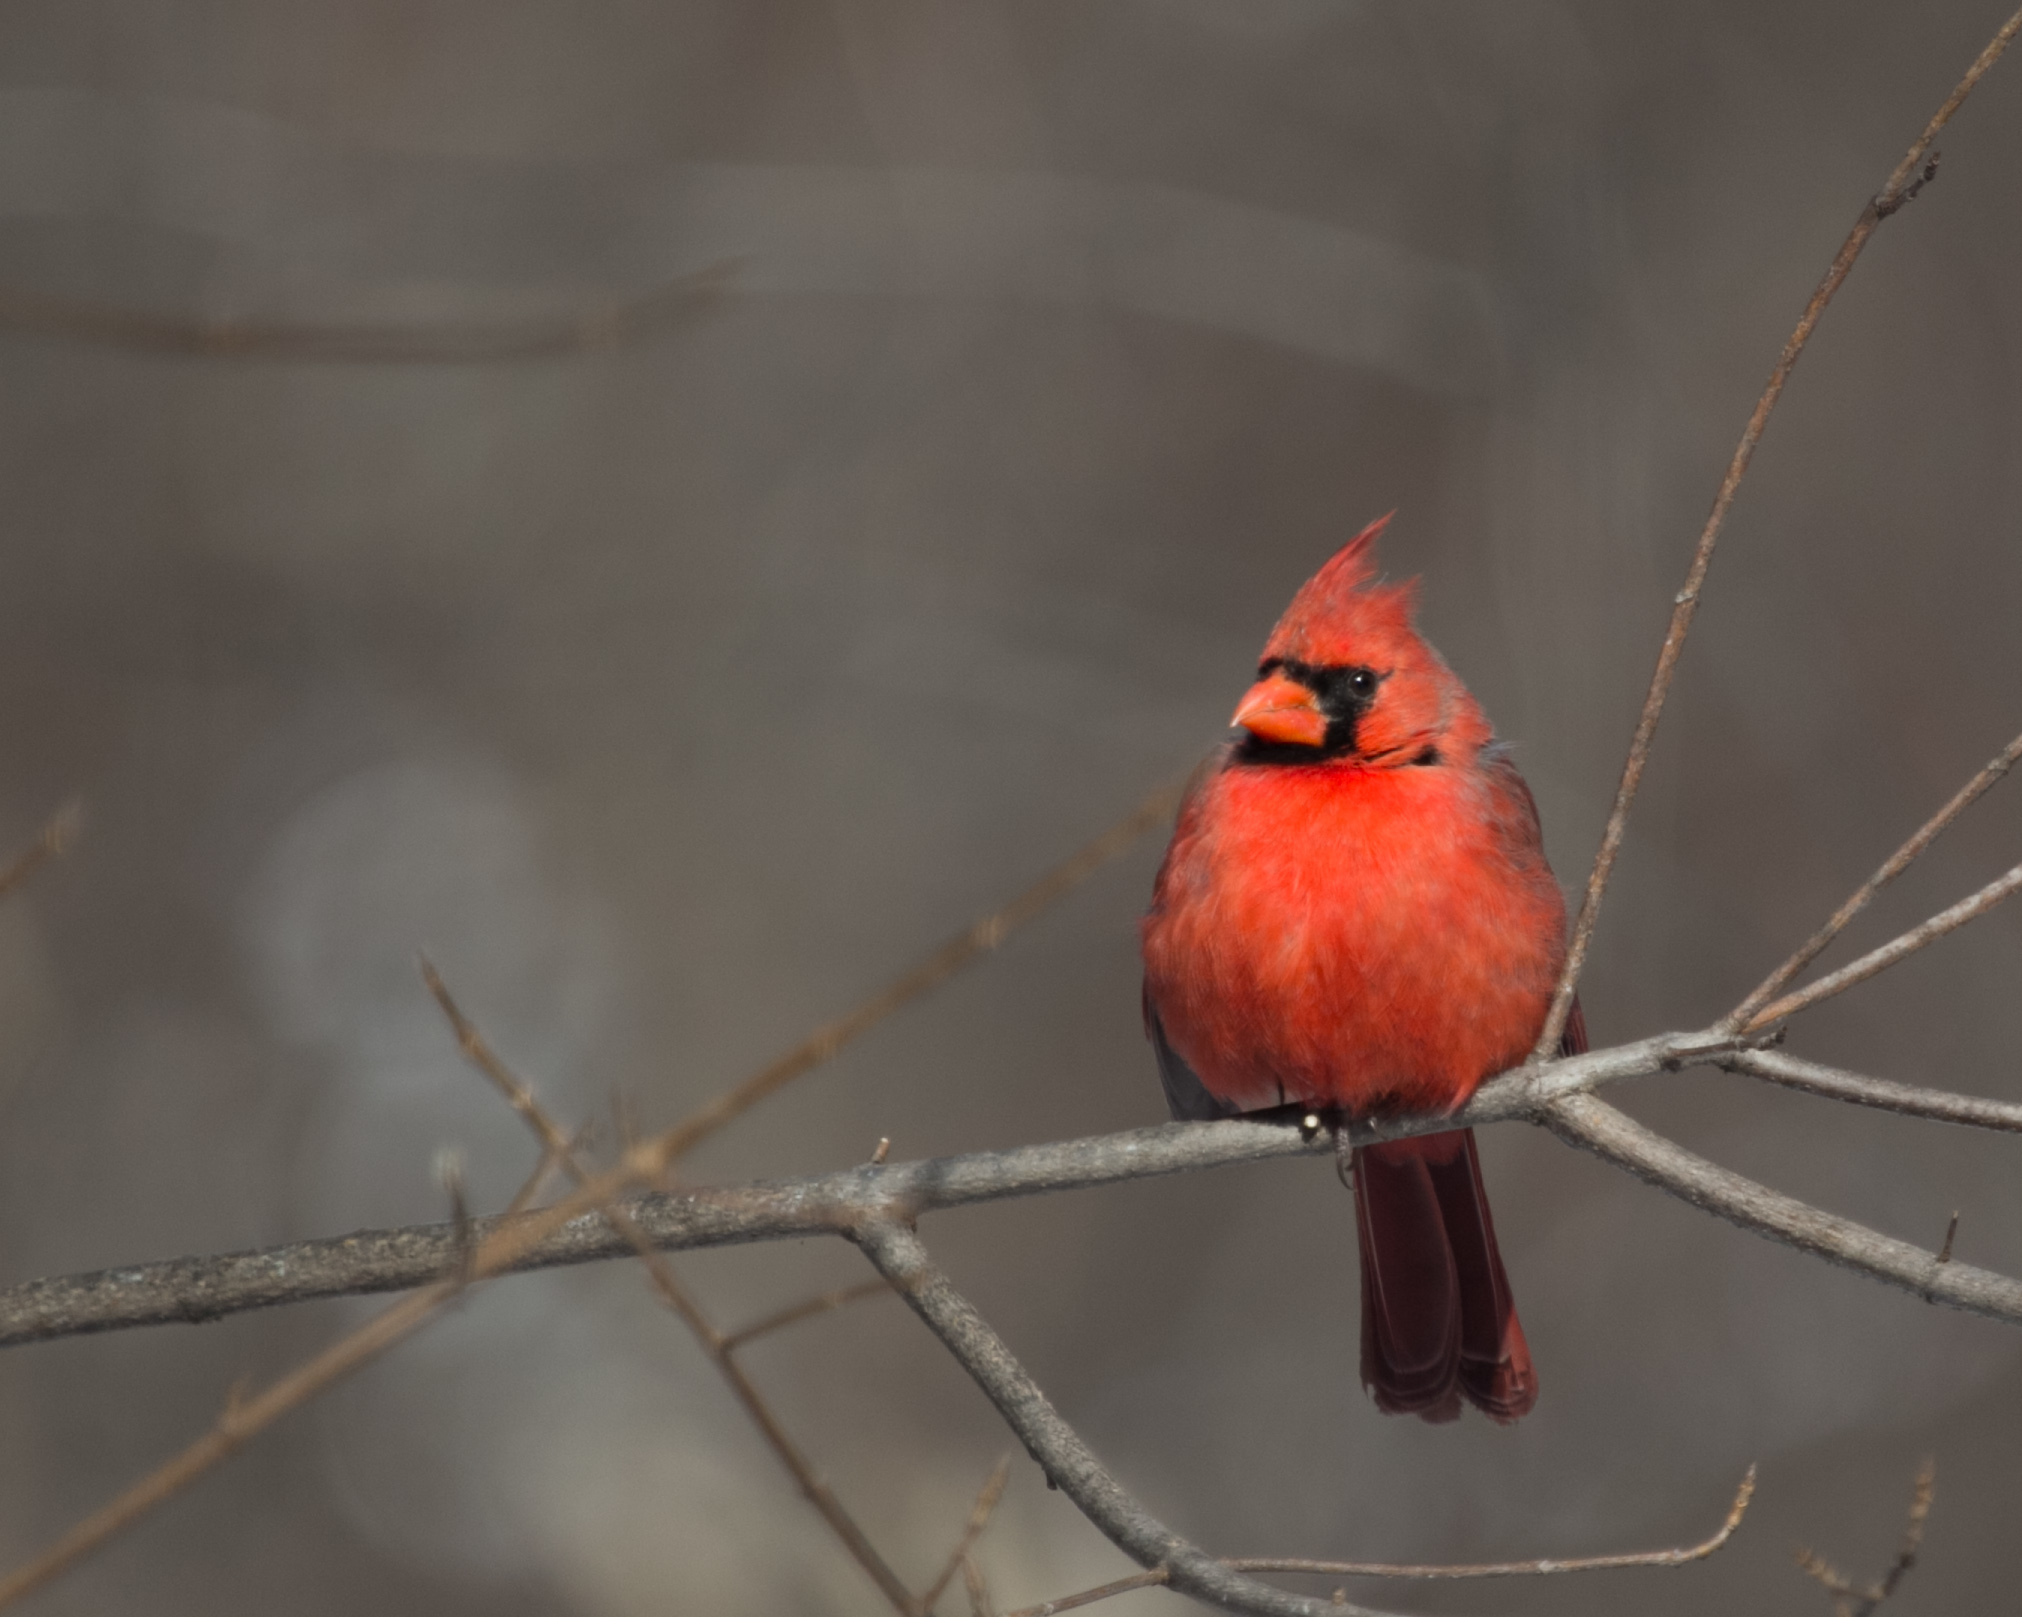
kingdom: Animalia
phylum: Chordata
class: Aves
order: Passeriformes
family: Cardinalidae
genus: Cardinalis
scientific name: Cardinalis cardinalis
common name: Northern cardinal
